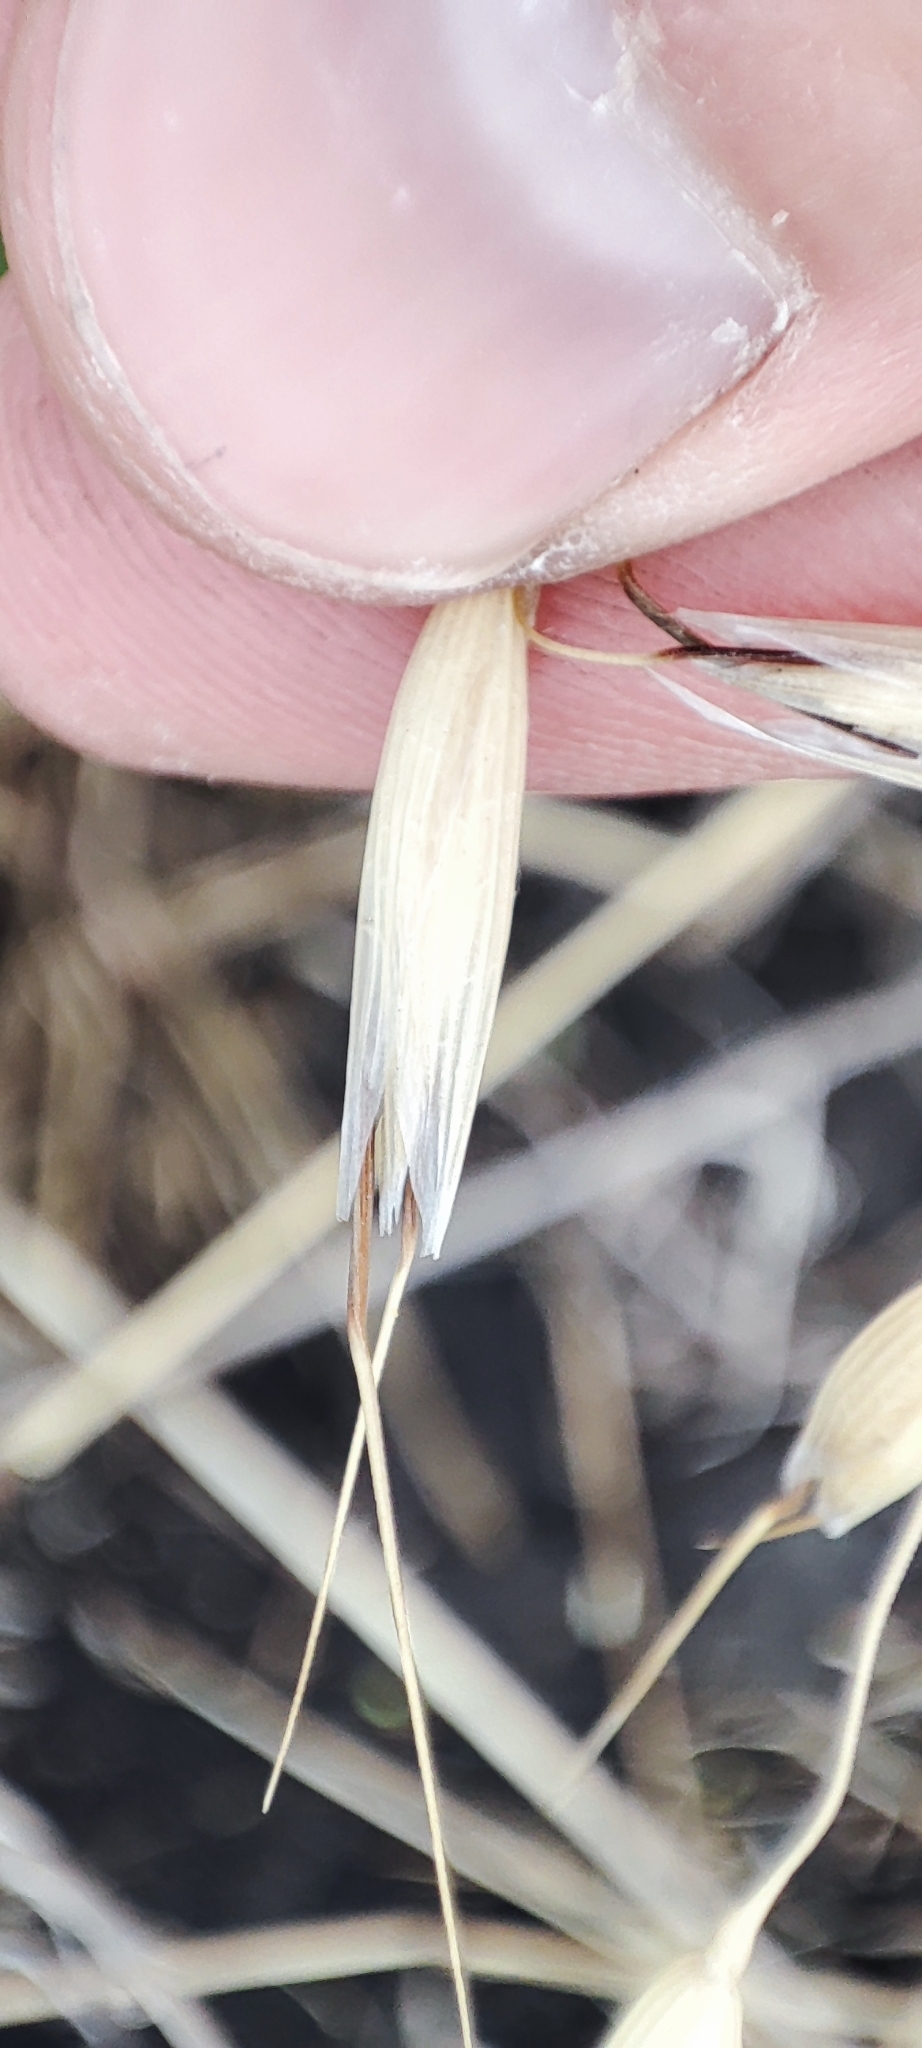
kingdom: Plantae
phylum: Tracheophyta
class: Liliopsida
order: Poales
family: Poaceae
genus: Avena
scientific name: Avena fatua
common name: Wild oat
